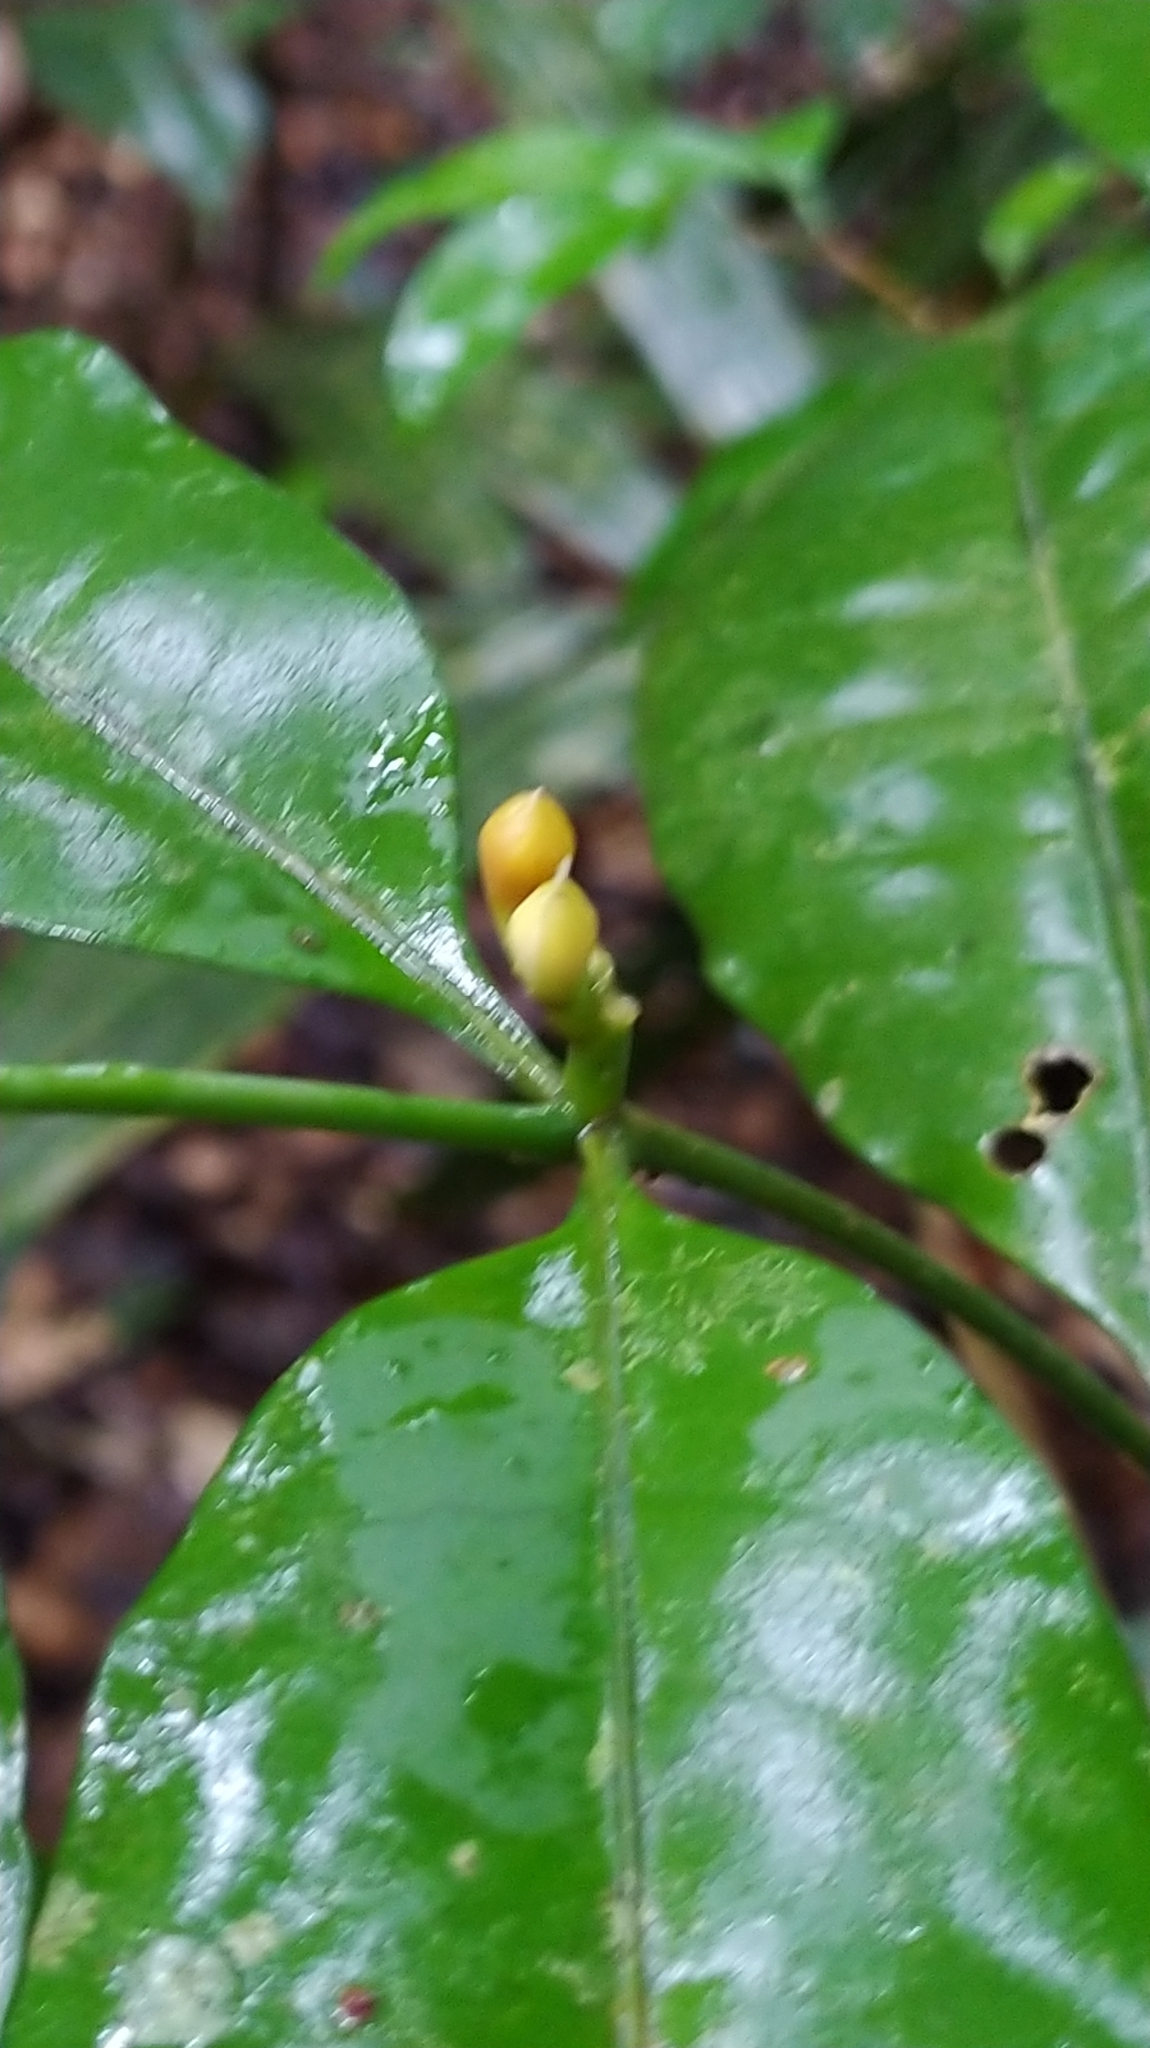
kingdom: Plantae
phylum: Tracheophyta
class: Magnoliopsida
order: Gentianales
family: Apocynaceae
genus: Tabernaemontana
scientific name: Tabernaemontana disticha
